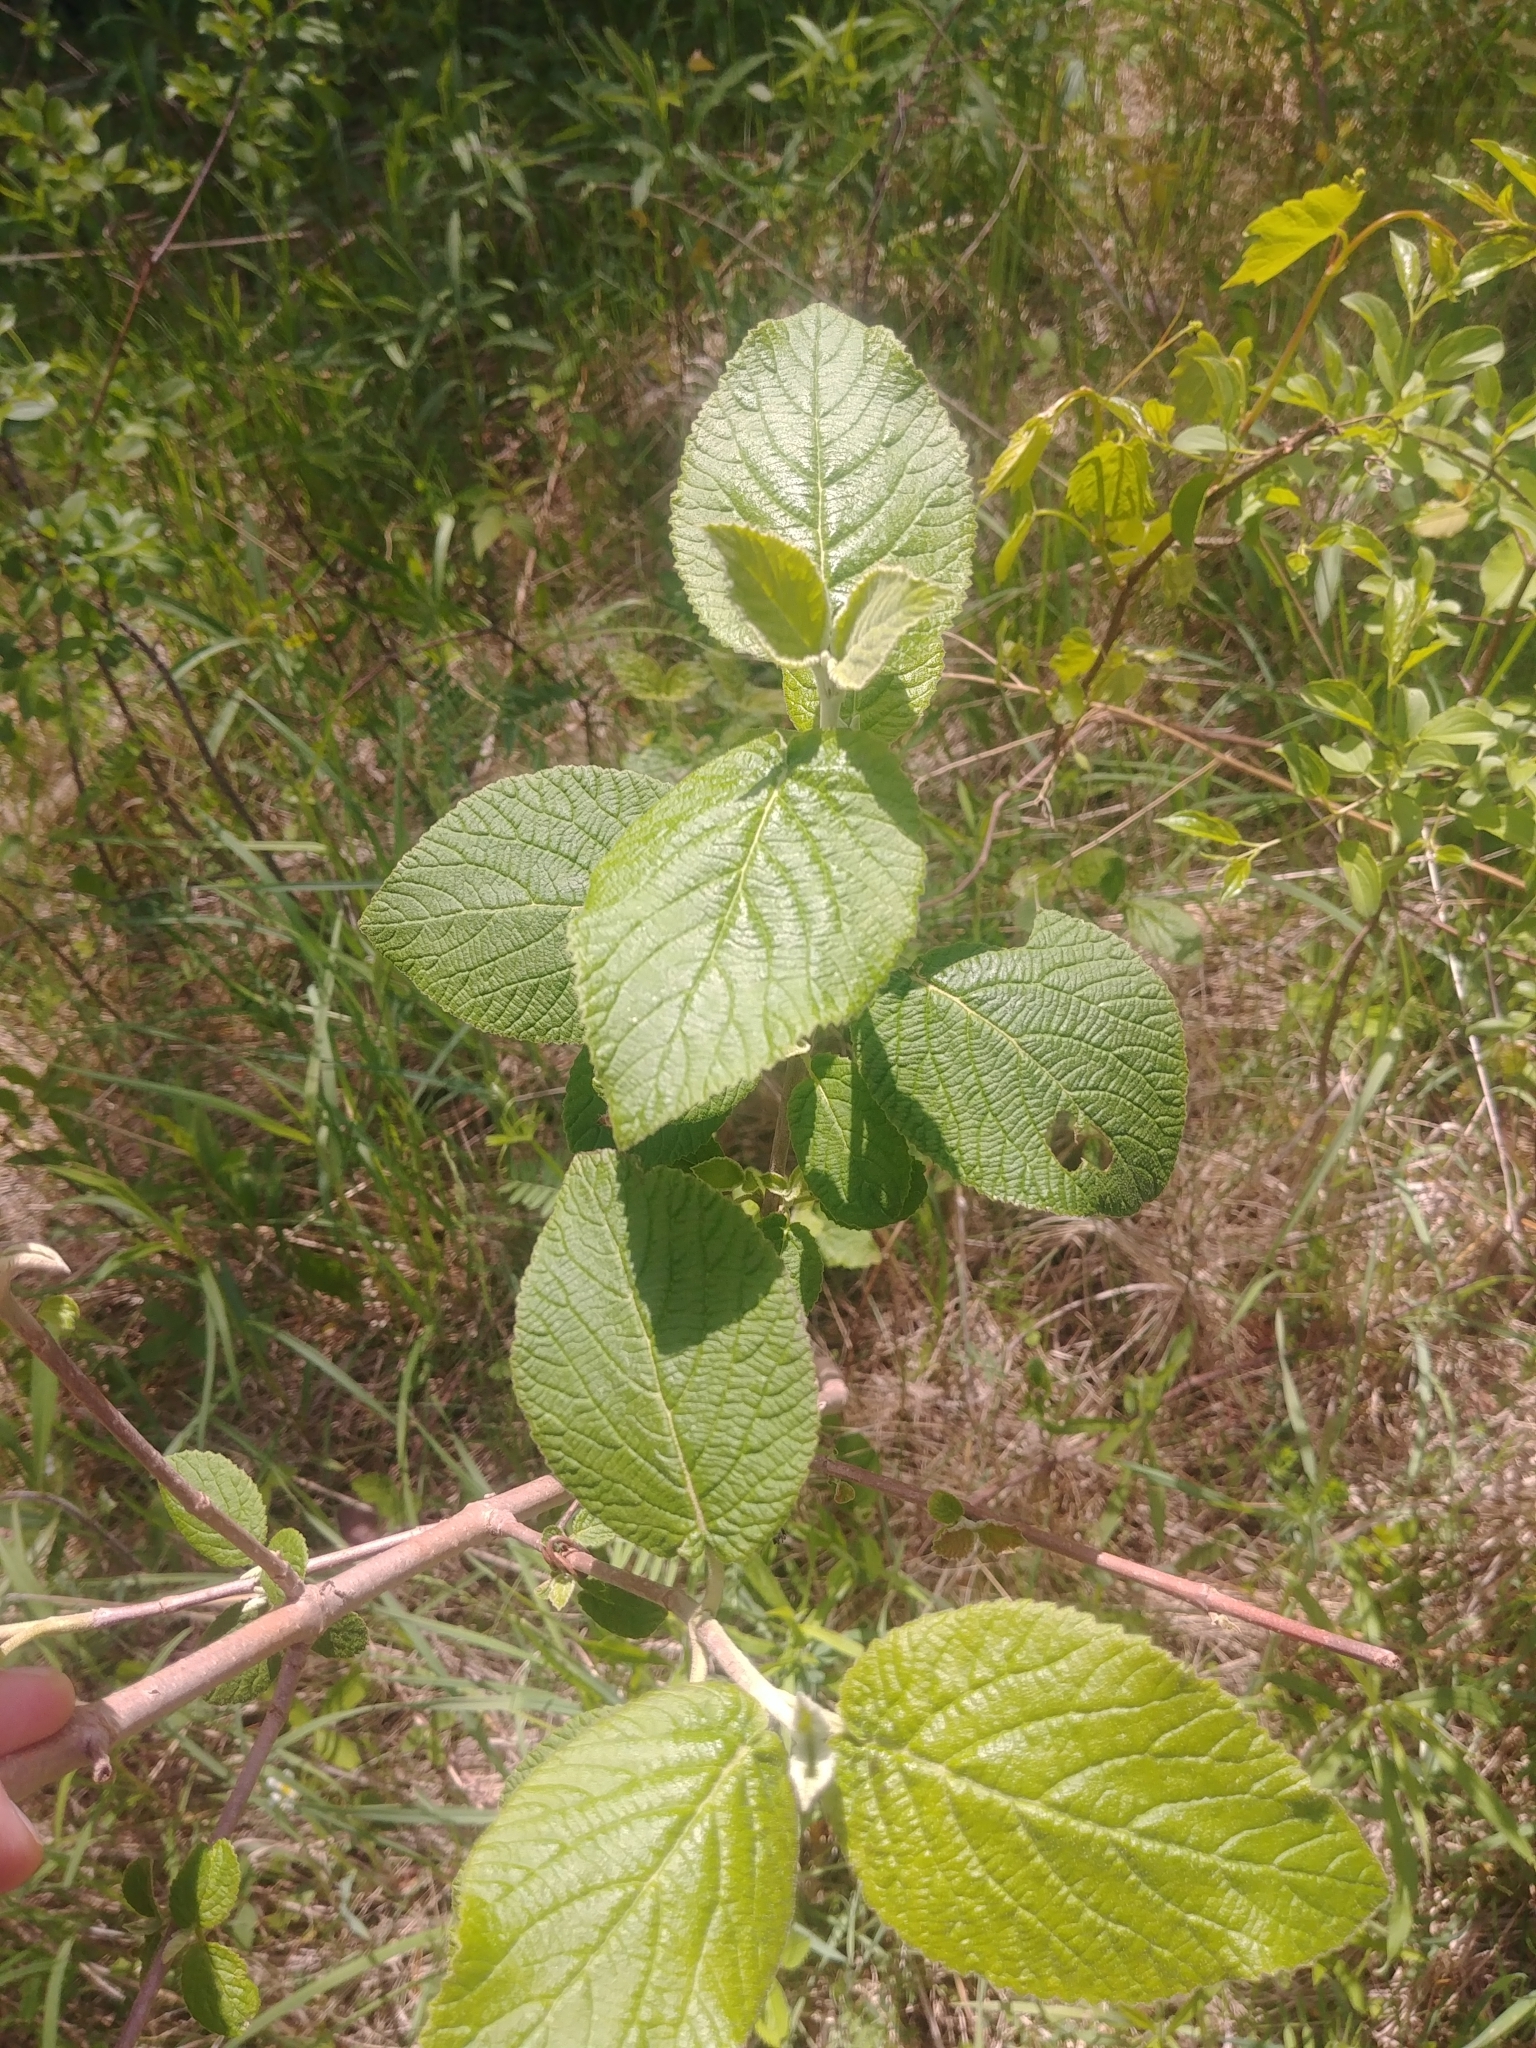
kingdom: Plantae
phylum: Tracheophyta
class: Magnoliopsida
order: Dipsacales
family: Viburnaceae
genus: Viburnum
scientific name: Viburnum lantana
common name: Wayfaring tree
